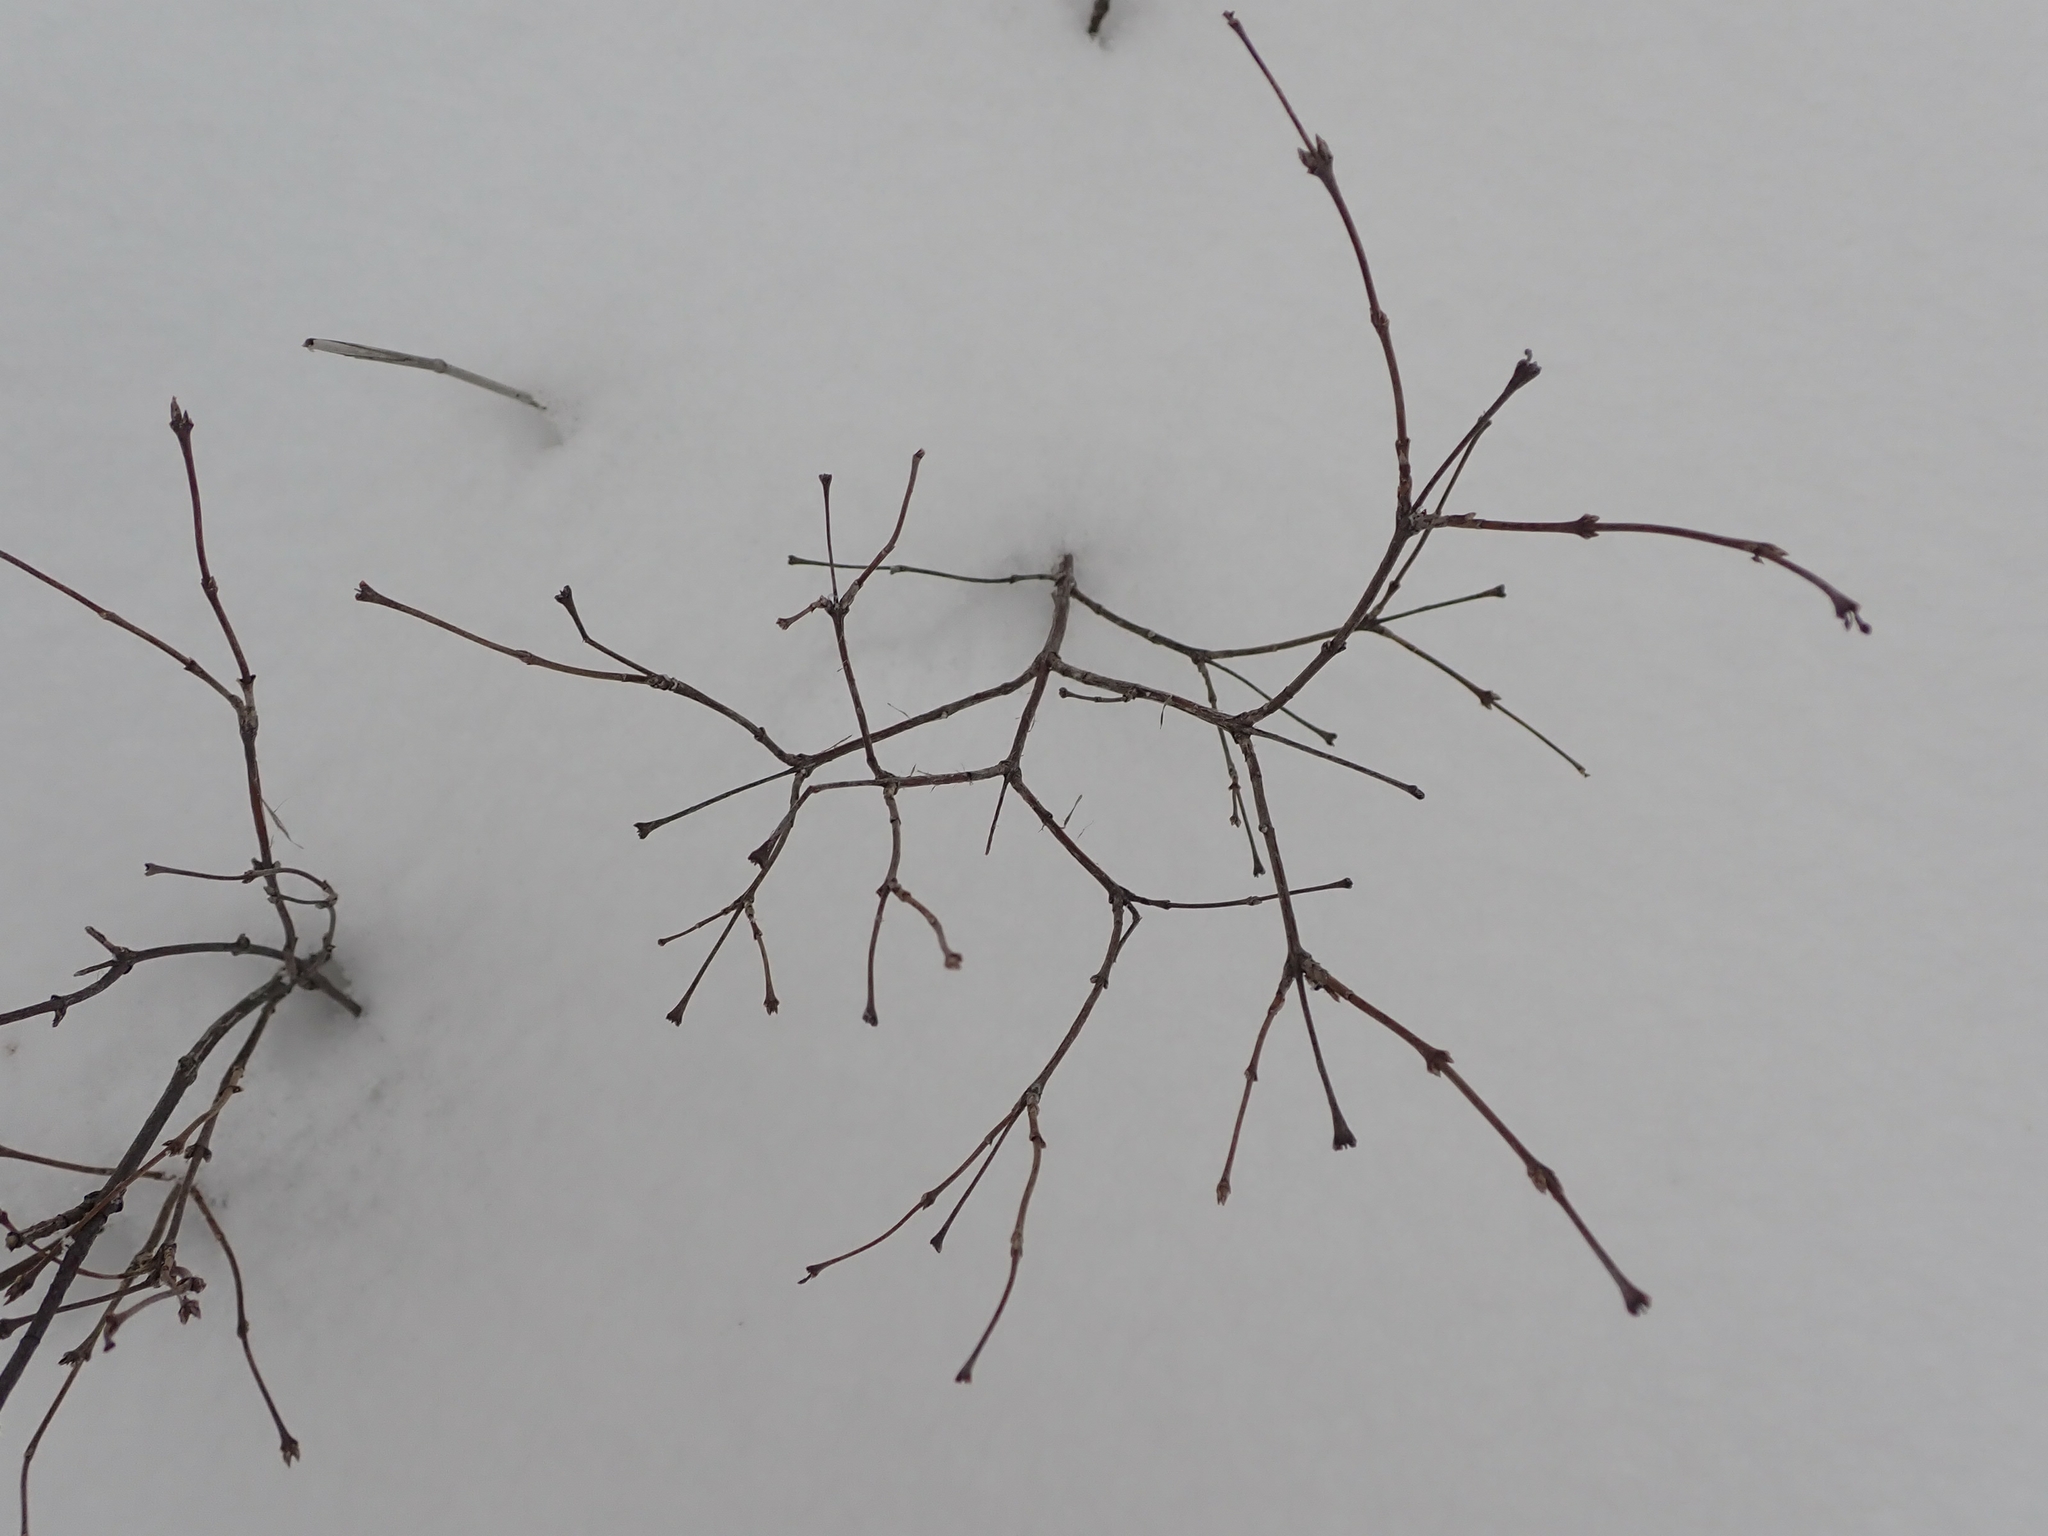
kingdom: Plantae
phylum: Tracheophyta
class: Magnoliopsida
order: Dipsacales
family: Caprifoliaceae
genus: Symphoricarpos
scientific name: Symphoricarpos occidentalis
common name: Wolfberry
